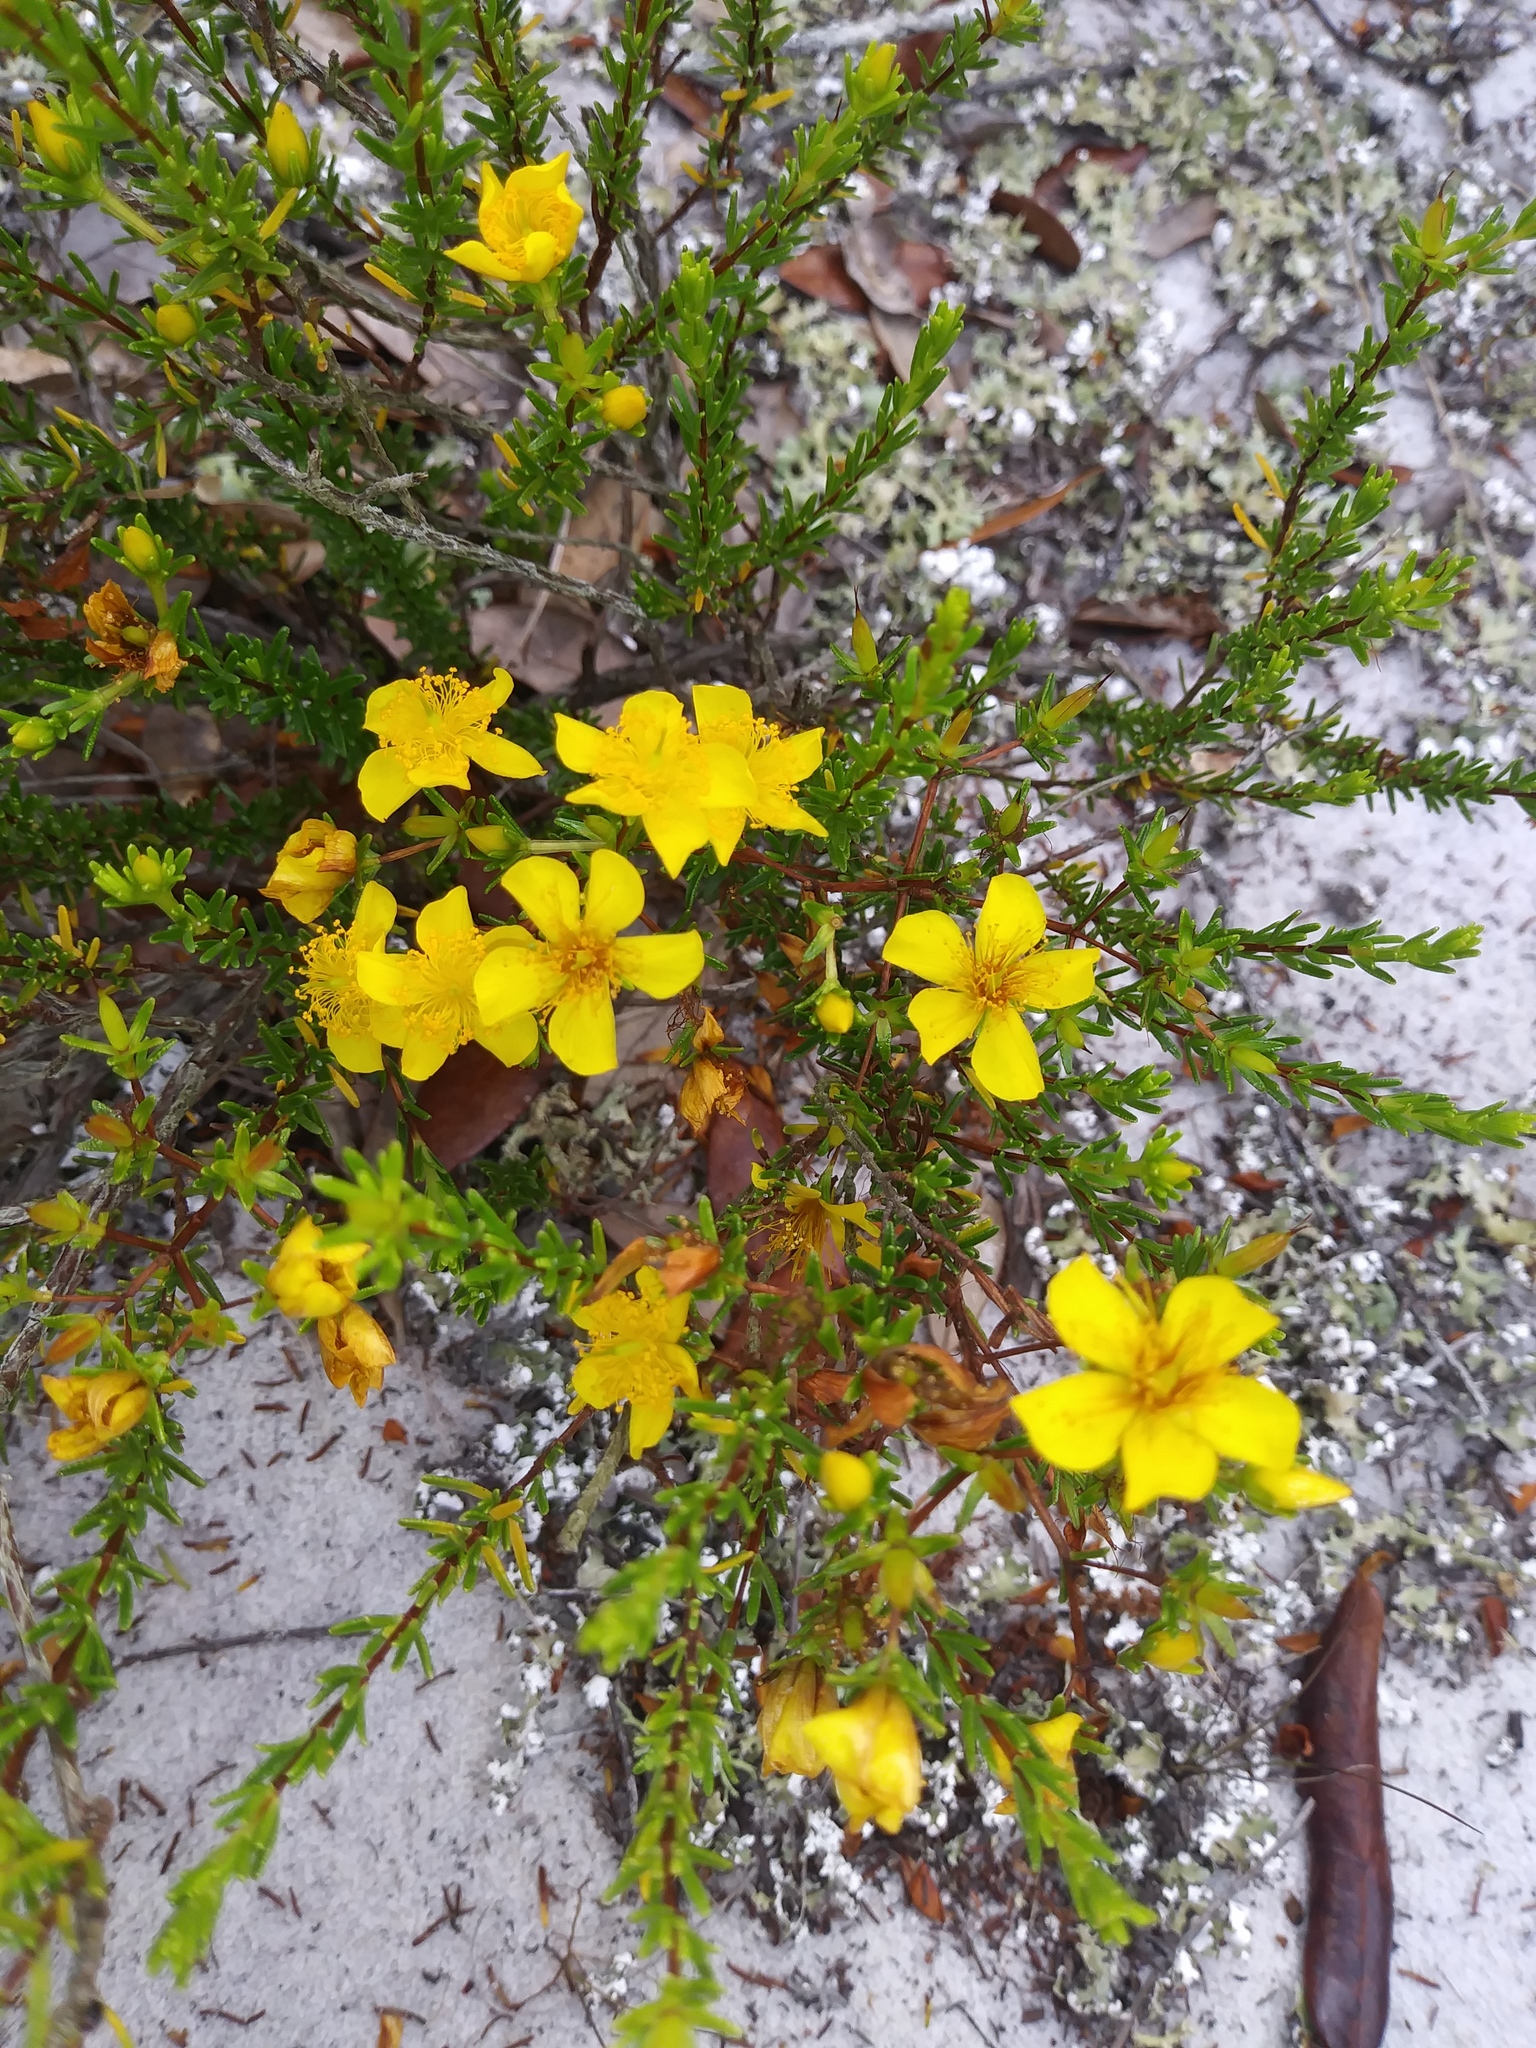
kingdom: Plantae
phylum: Tracheophyta
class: Magnoliopsida
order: Malpighiales
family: Hypericaceae
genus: Hypericum
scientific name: Hypericum tenuifolium
